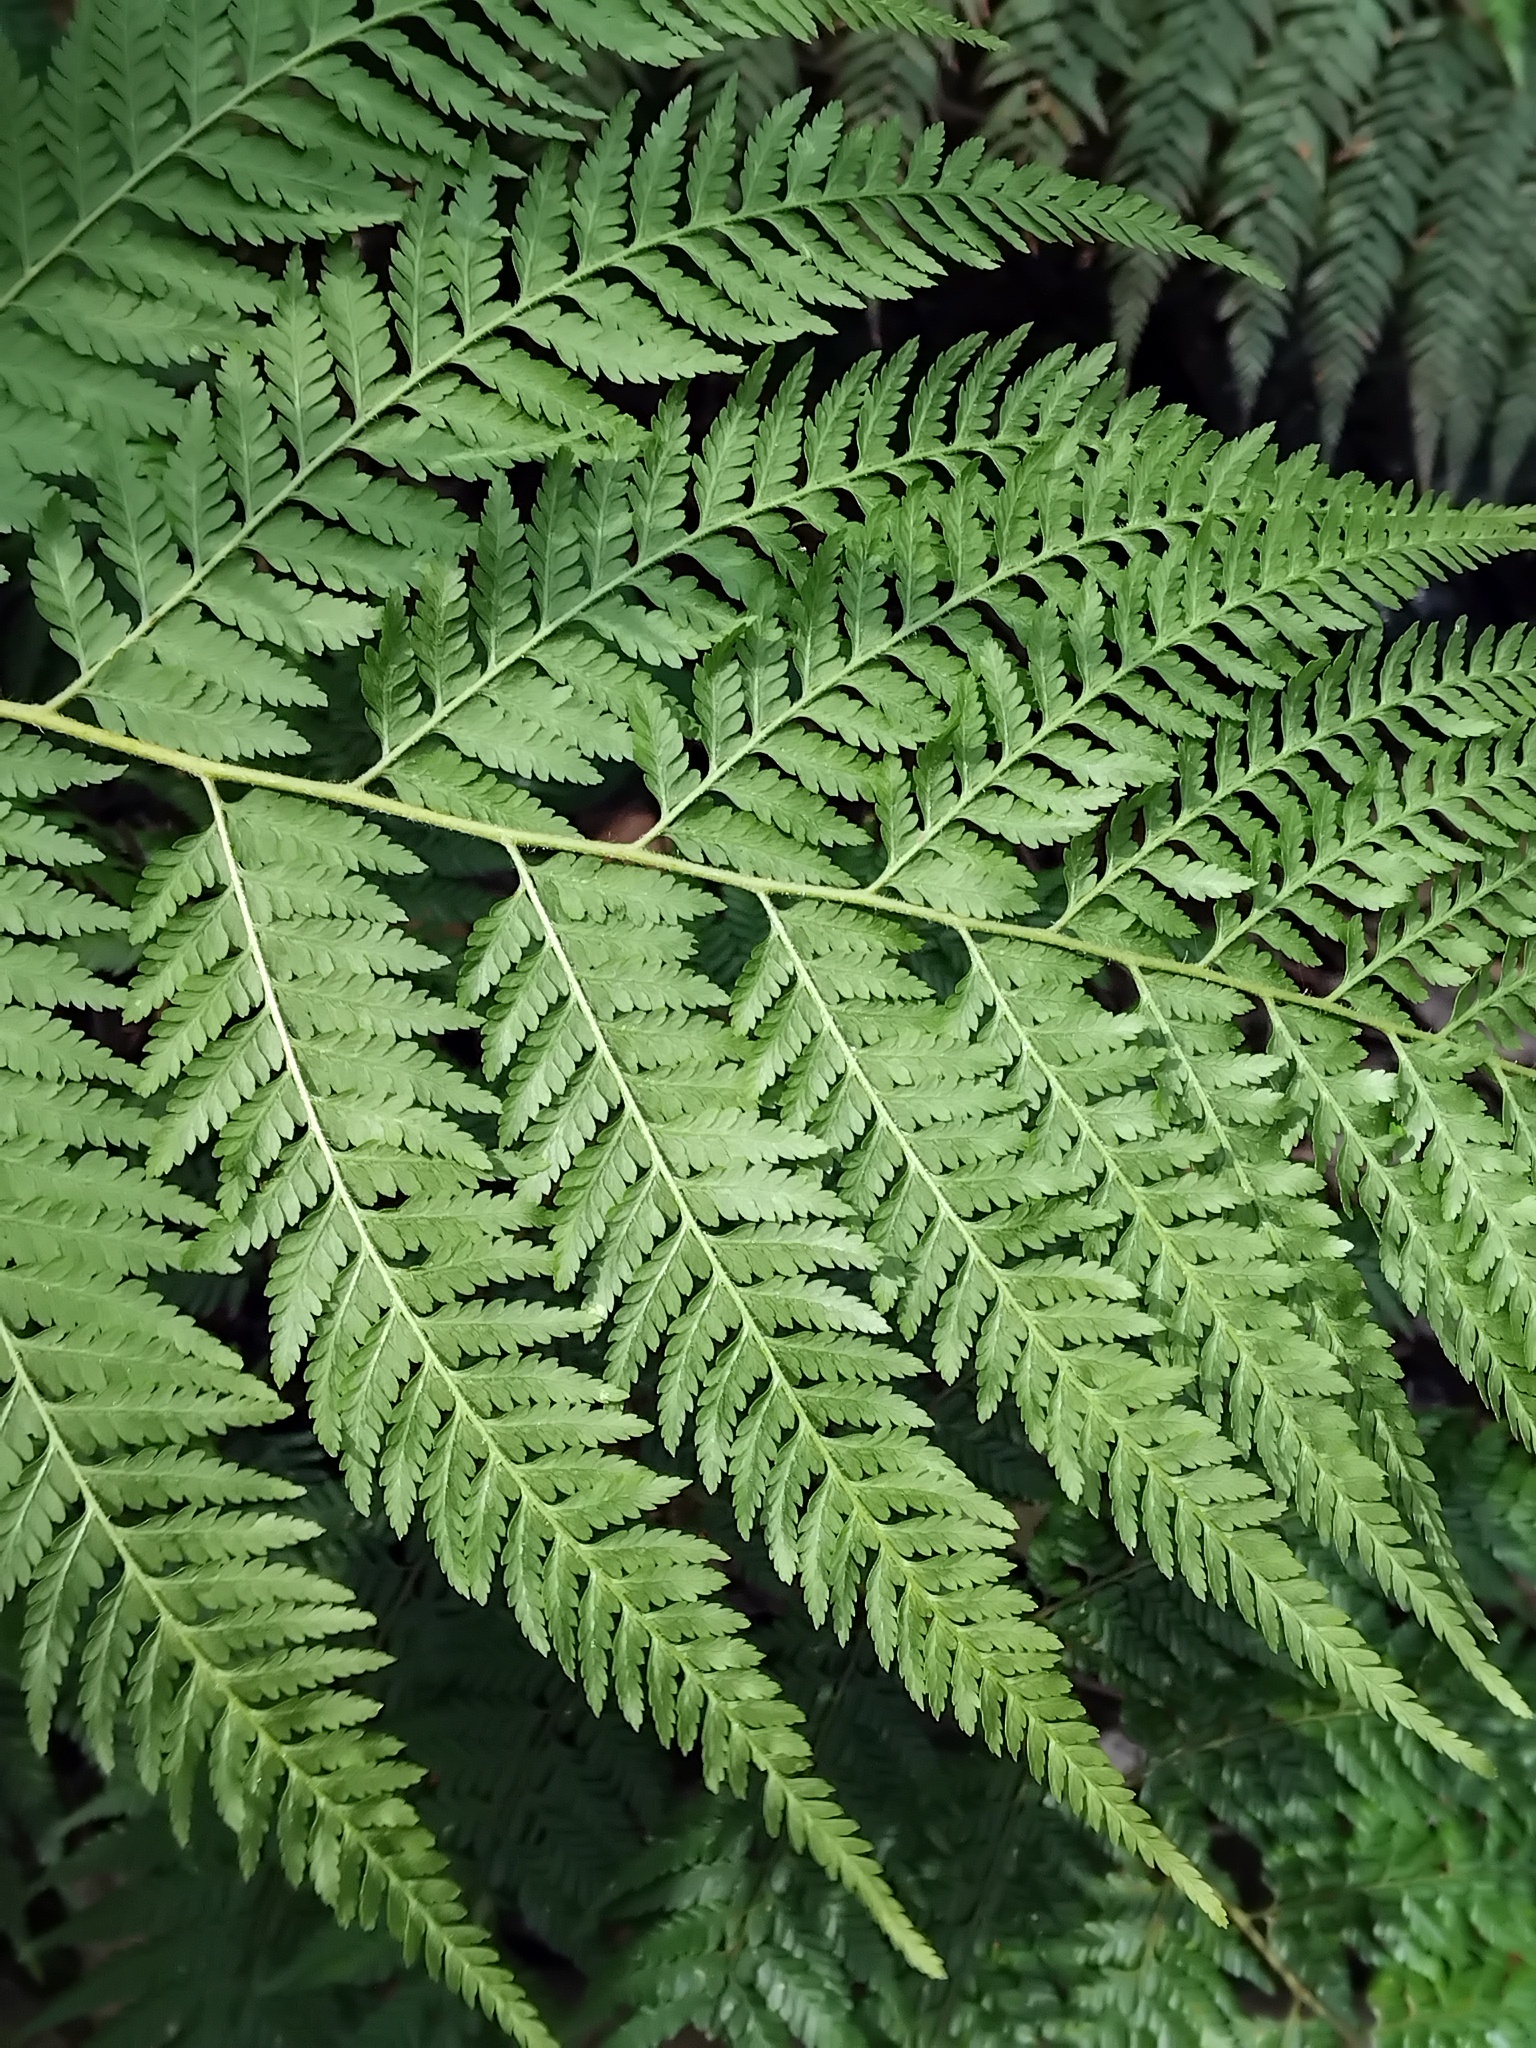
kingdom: Plantae
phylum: Tracheophyta
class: Polypodiopsida
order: Cyatheales
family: Dicksoniaceae
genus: Calochlaena
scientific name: Calochlaena dubia
